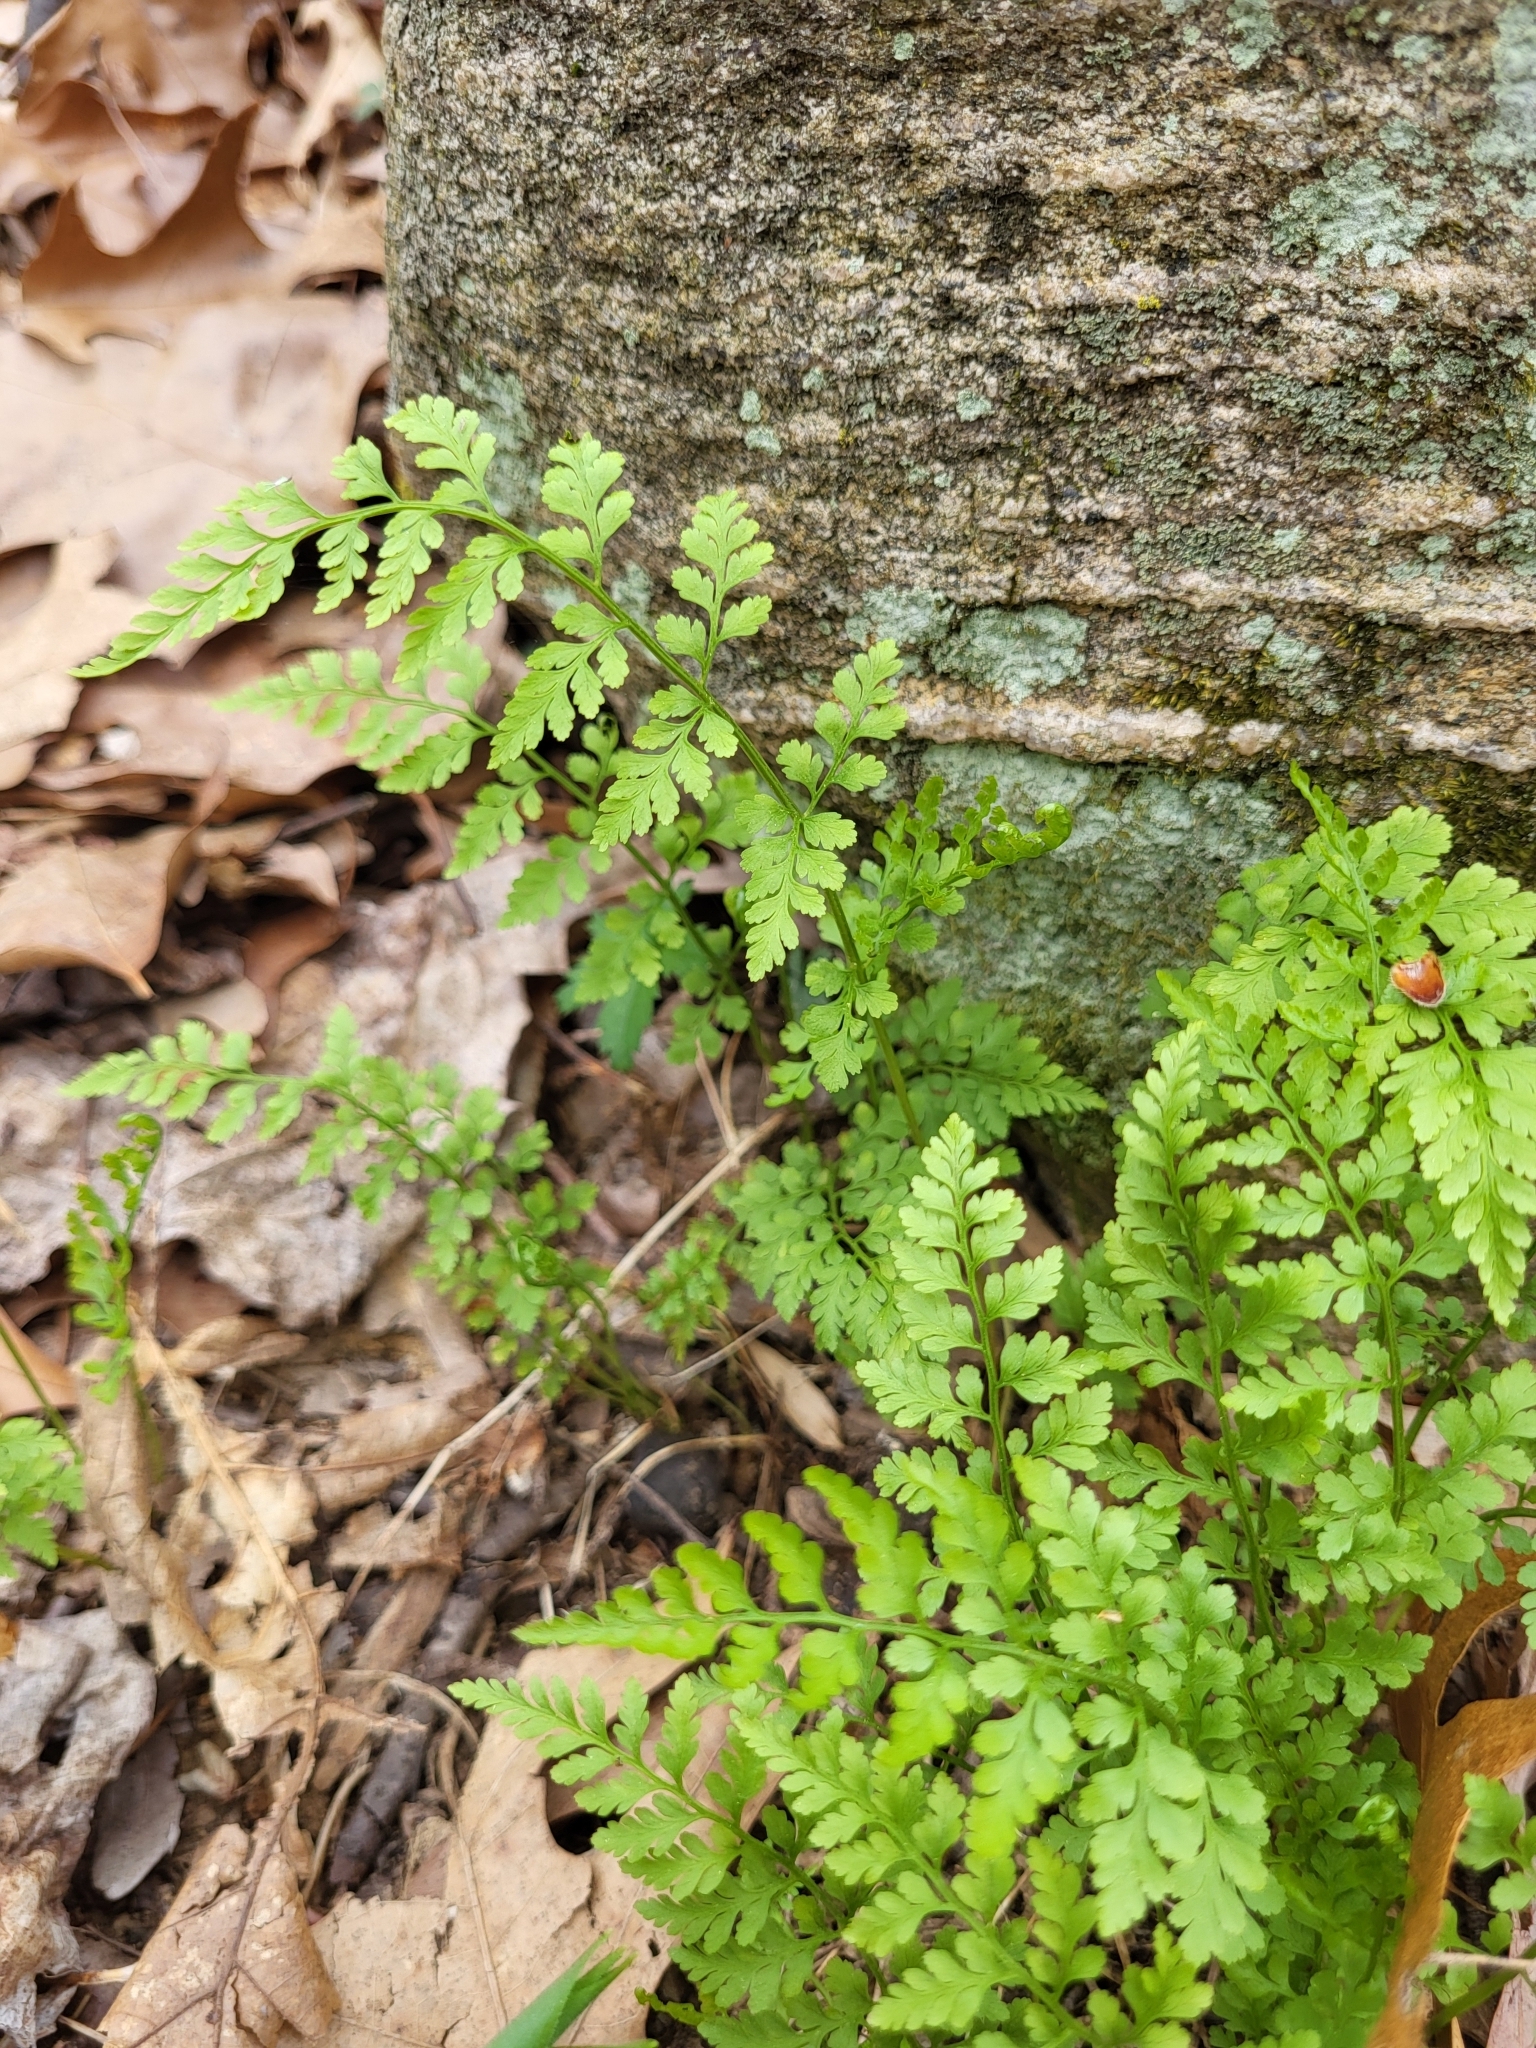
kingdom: Plantae
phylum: Tracheophyta
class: Polypodiopsida
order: Polypodiales
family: Cystopteridaceae
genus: Cystopteris
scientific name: Cystopteris protrusa
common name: Lowland brittle fern
